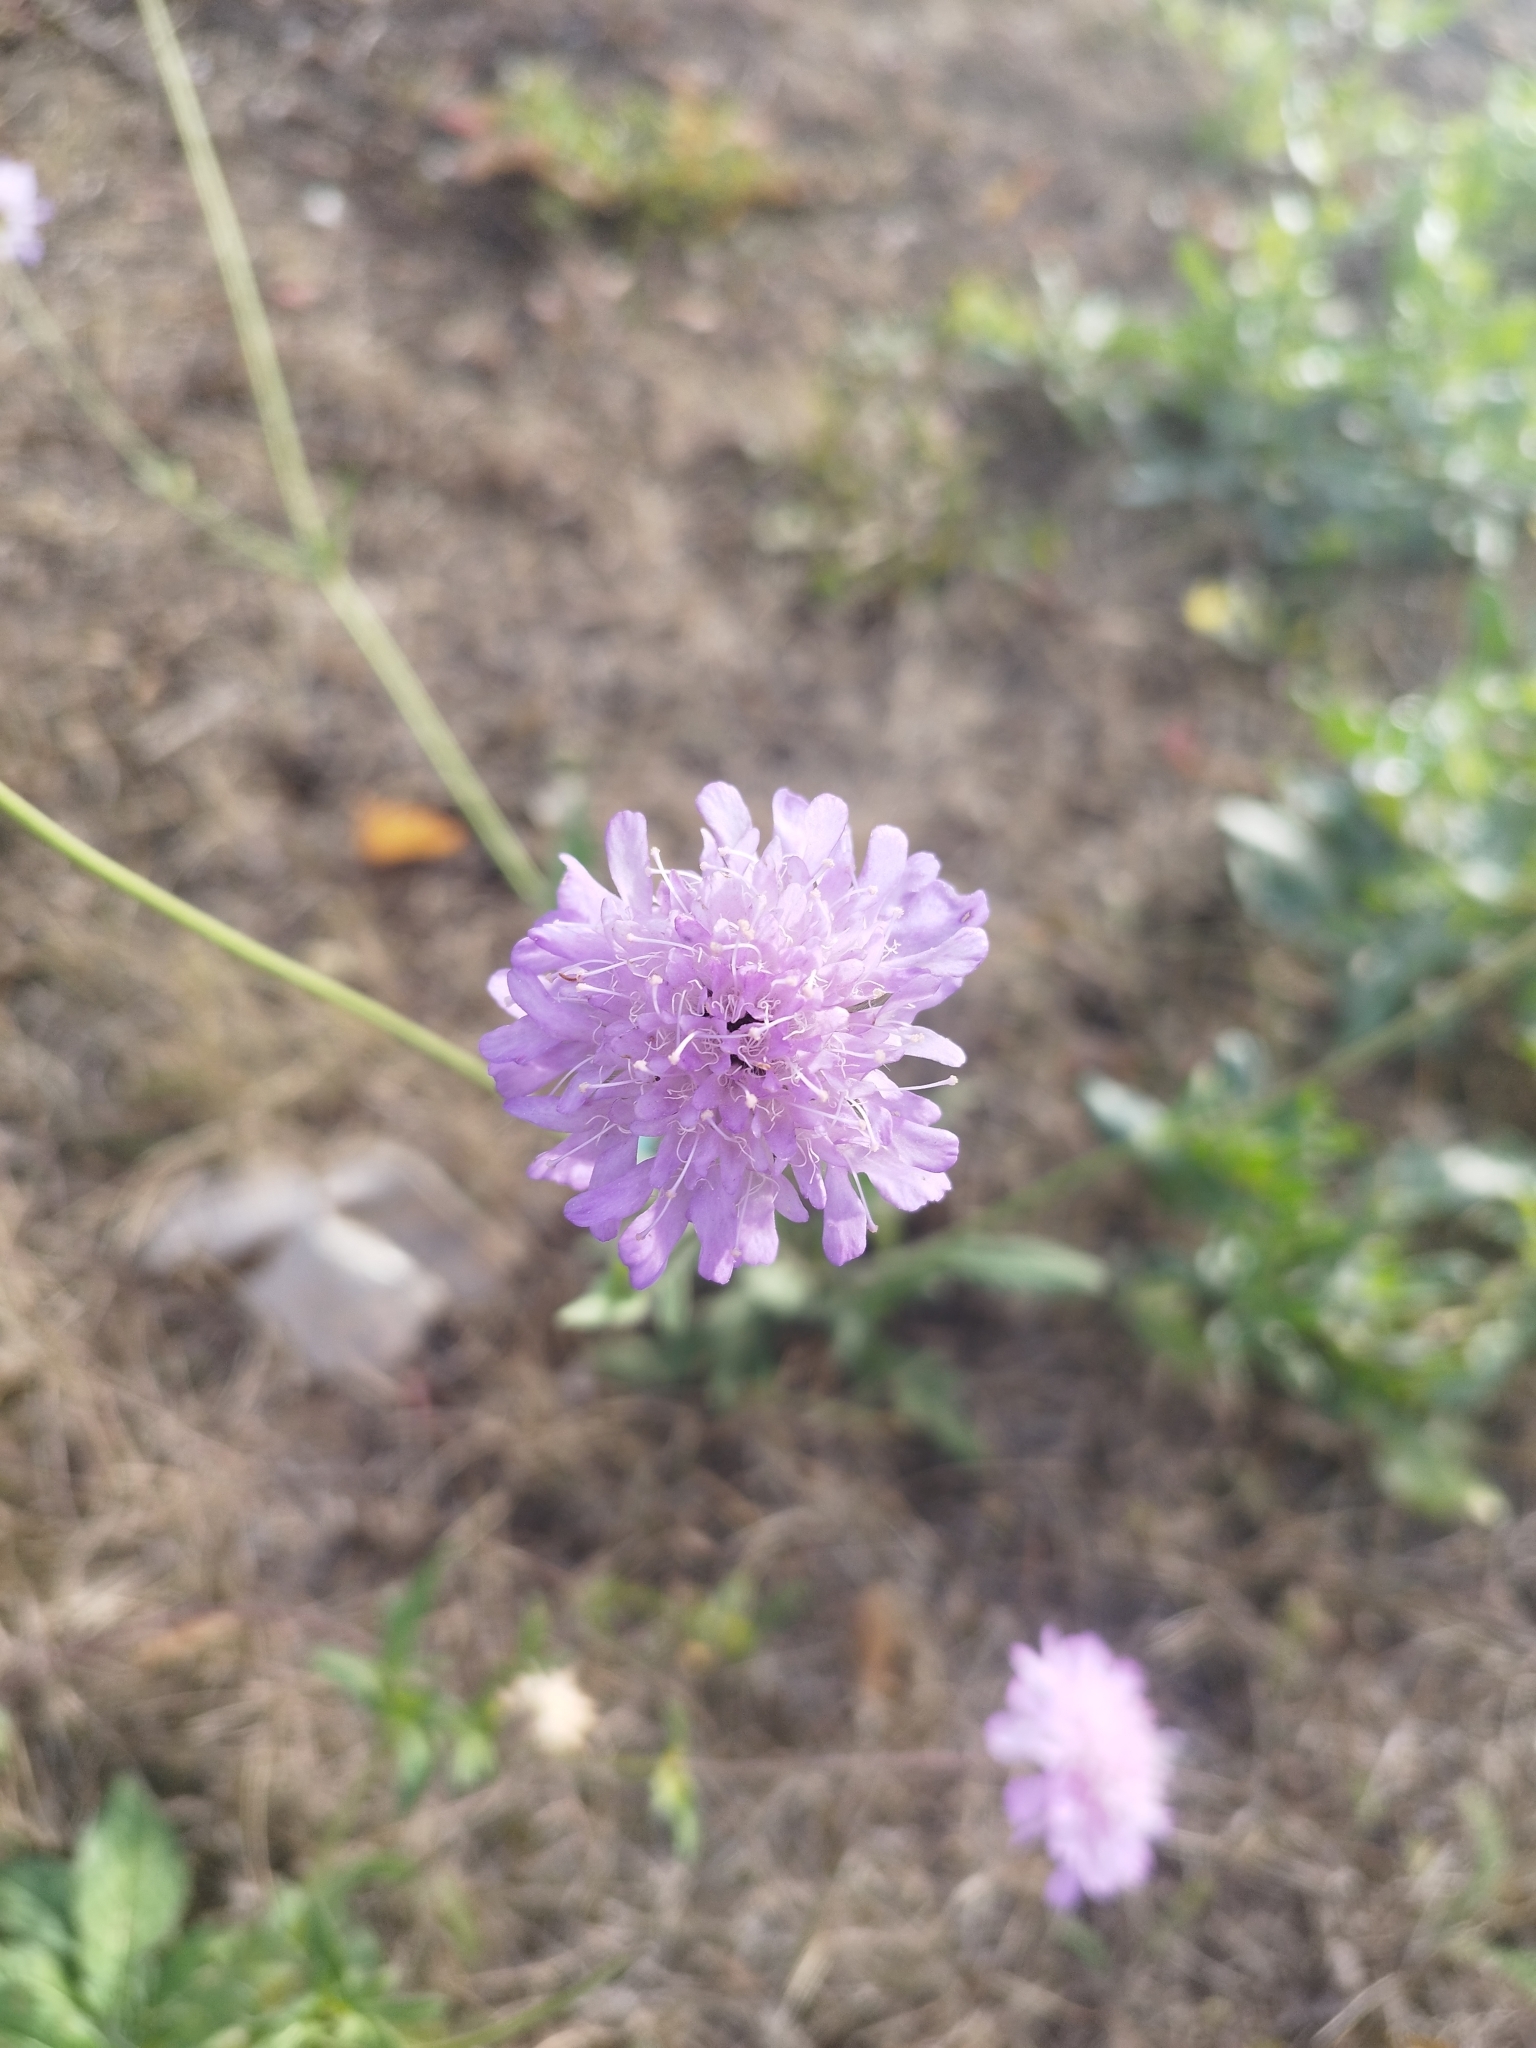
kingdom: Plantae
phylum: Tracheophyta
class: Magnoliopsida
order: Dipsacales
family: Caprifoliaceae
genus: Knautia
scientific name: Knautia arvensis
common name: Field scabiosa
